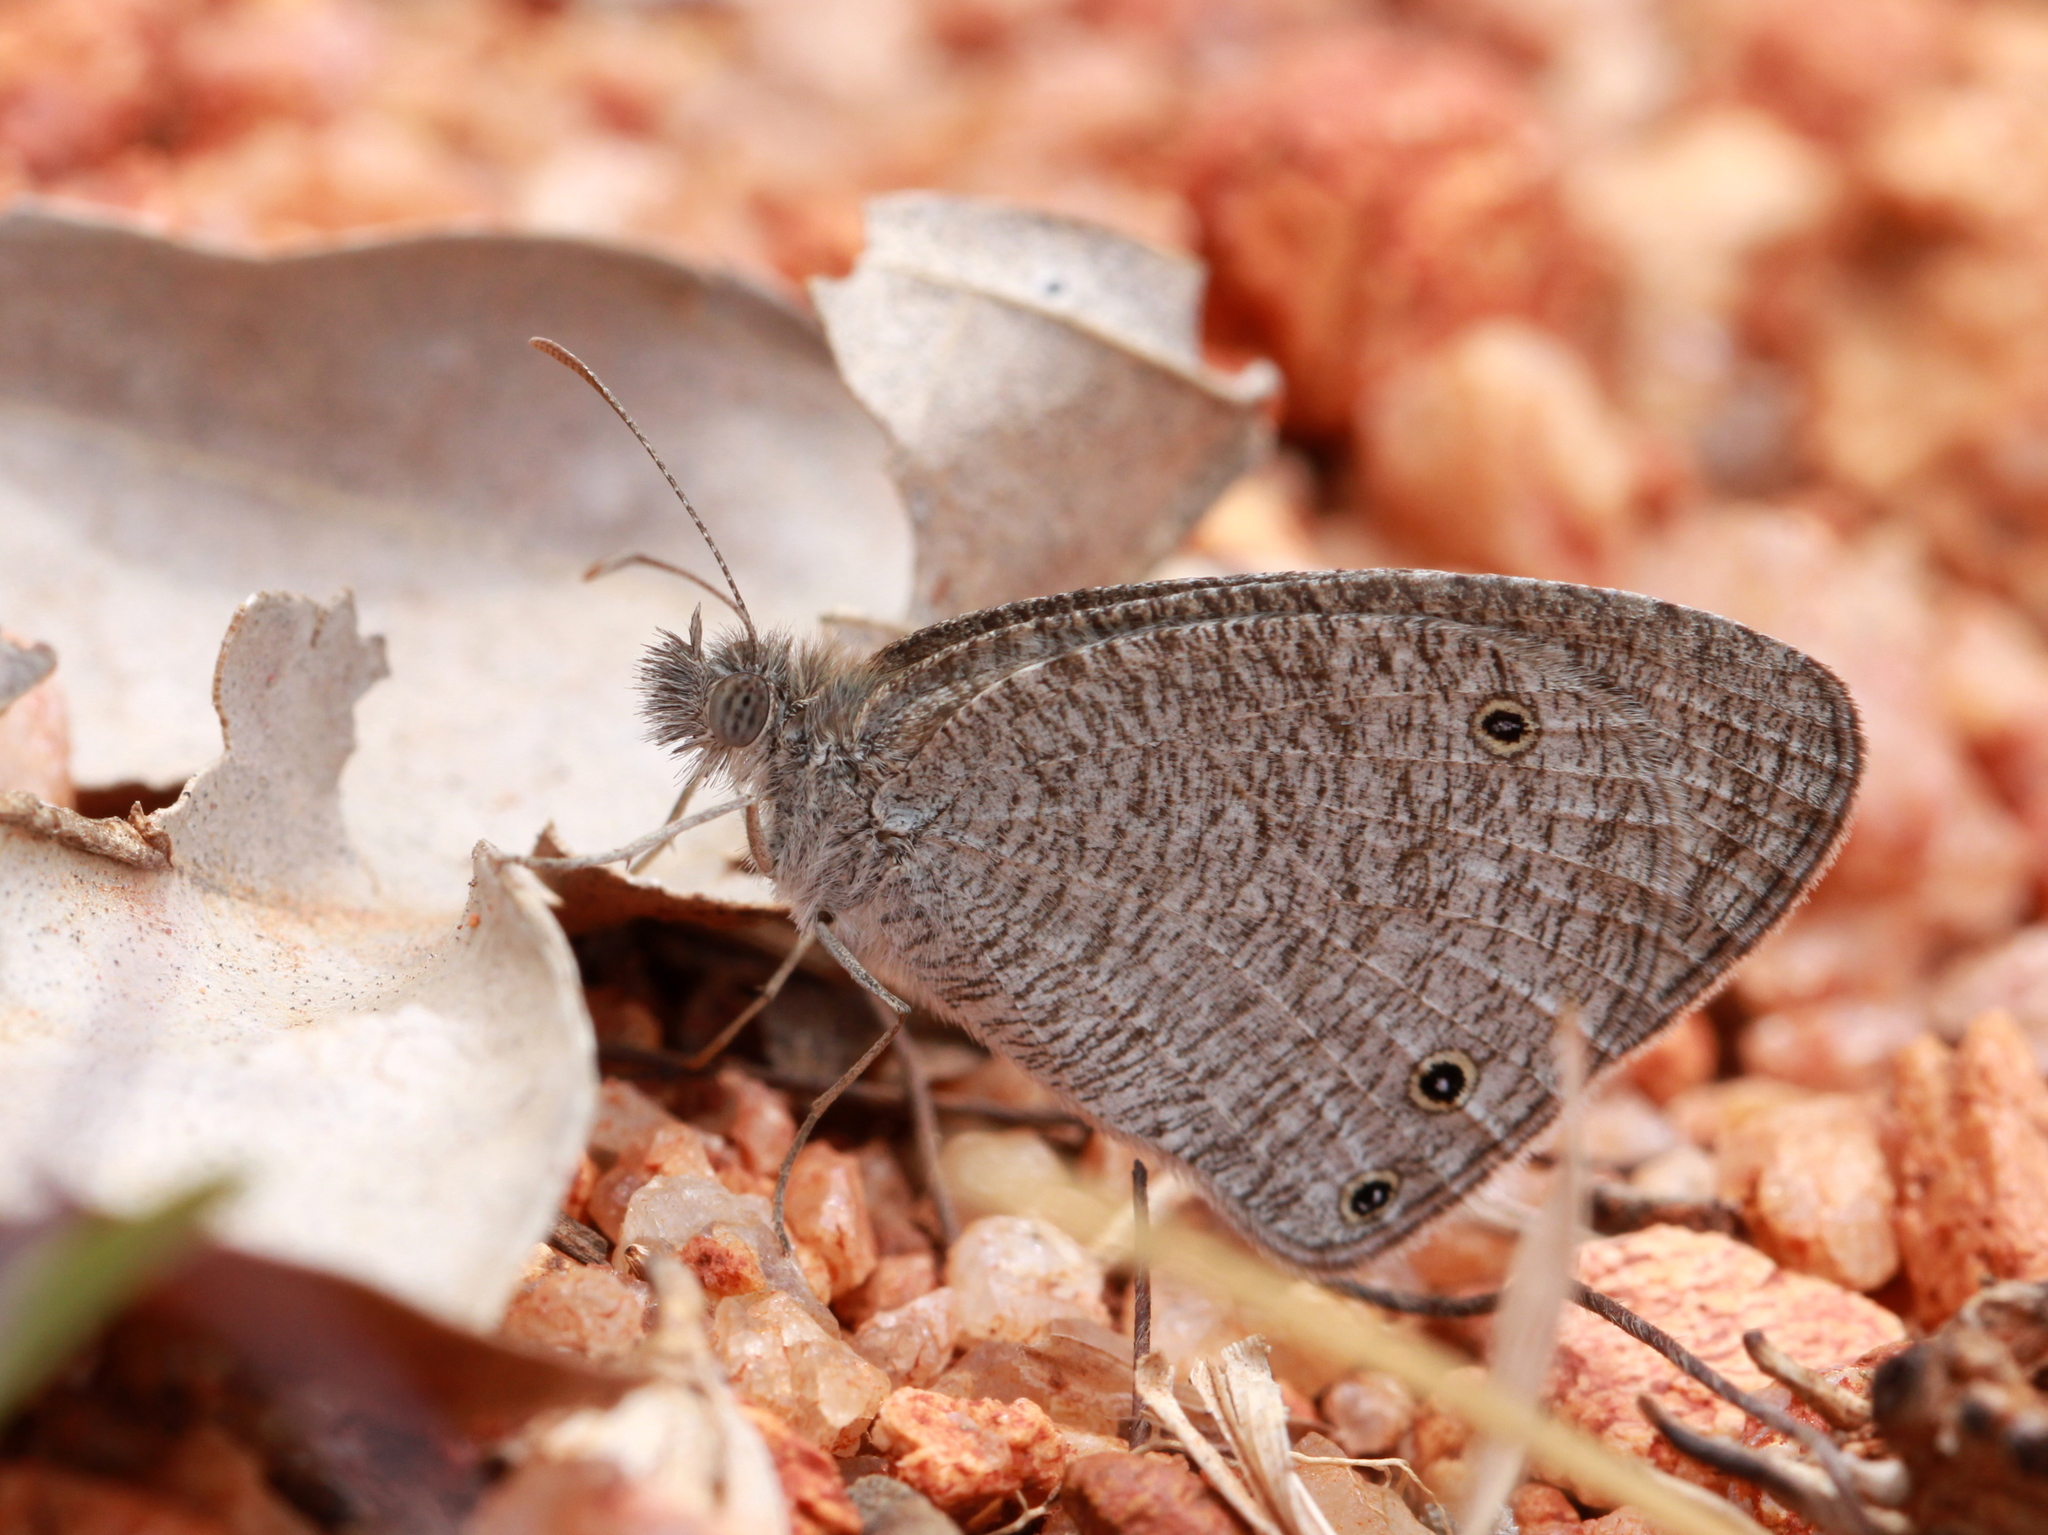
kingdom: Animalia
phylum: Arthropoda
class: Insecta
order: Lepidoptera
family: Nymphalidae
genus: Ypthima
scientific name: Ypthima asterope
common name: African ringlet
